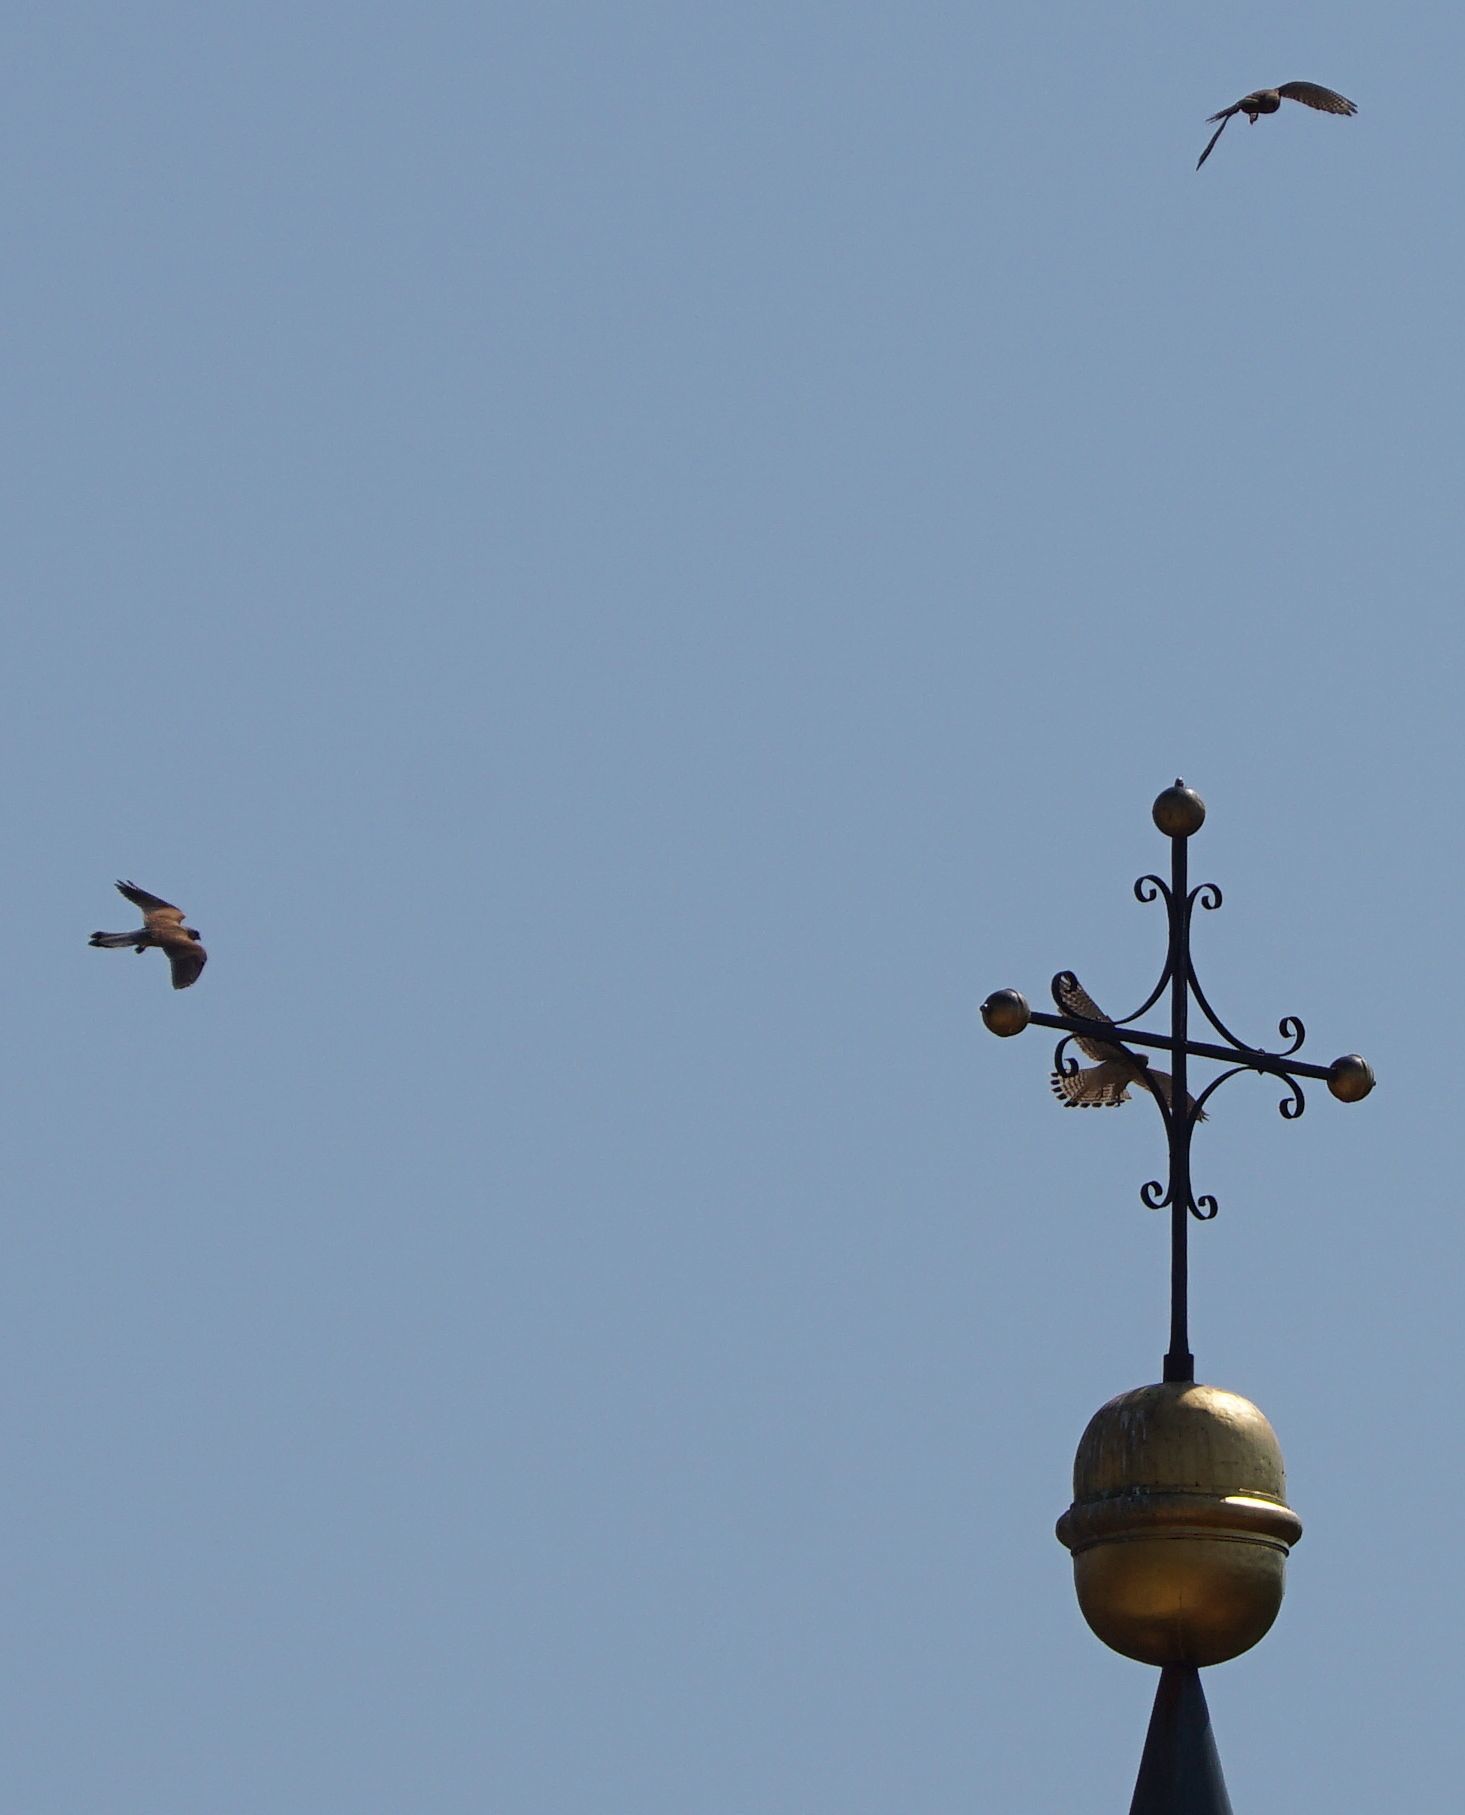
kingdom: Animalia
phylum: Chordata
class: Aves
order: Falconiformes
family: Falconidae
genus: Falco
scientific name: Falco tinnunculus
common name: Common kestrel
